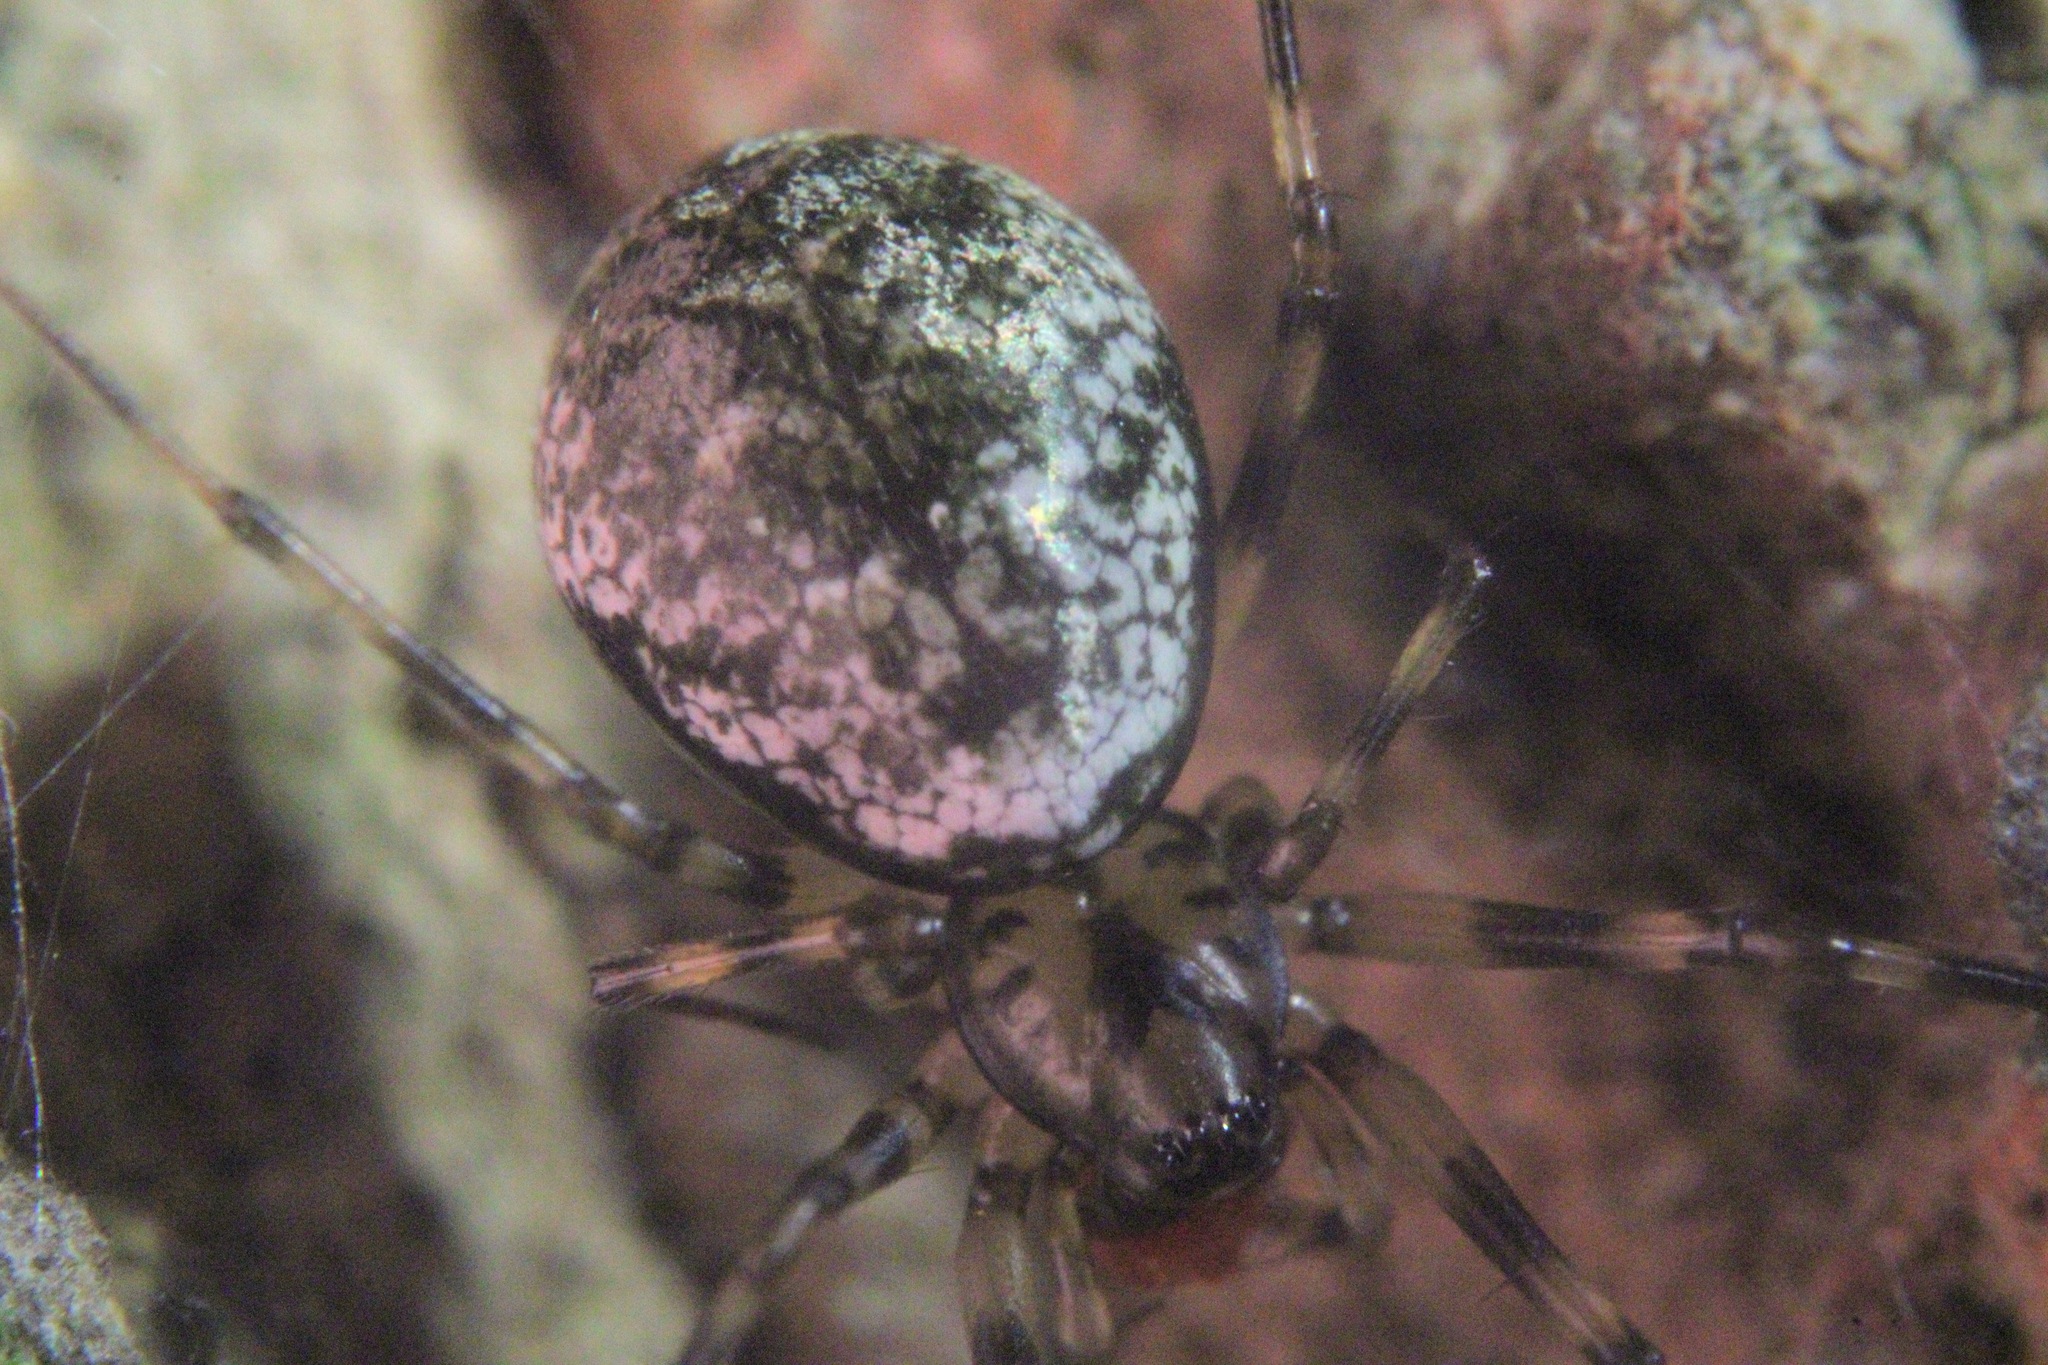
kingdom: Animalia
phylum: Arthropoda
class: Arachnida
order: Araneae
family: Linyphiidae
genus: Drapetisca
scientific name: Drapetisca alteranda
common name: Northern long-toothed sheetweaver
